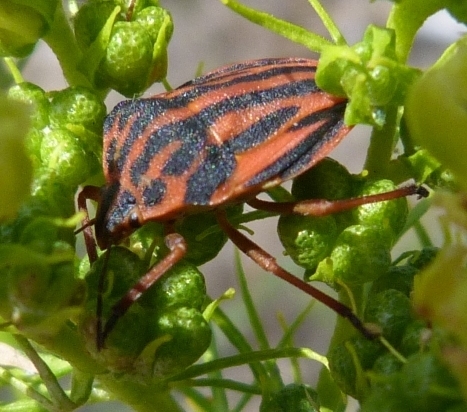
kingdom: Animalia
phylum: Arthropoda
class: Insecta
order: Hemiptera
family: Pentatomidae
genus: Graphosoma
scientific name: Graphosoma semipunctatum
